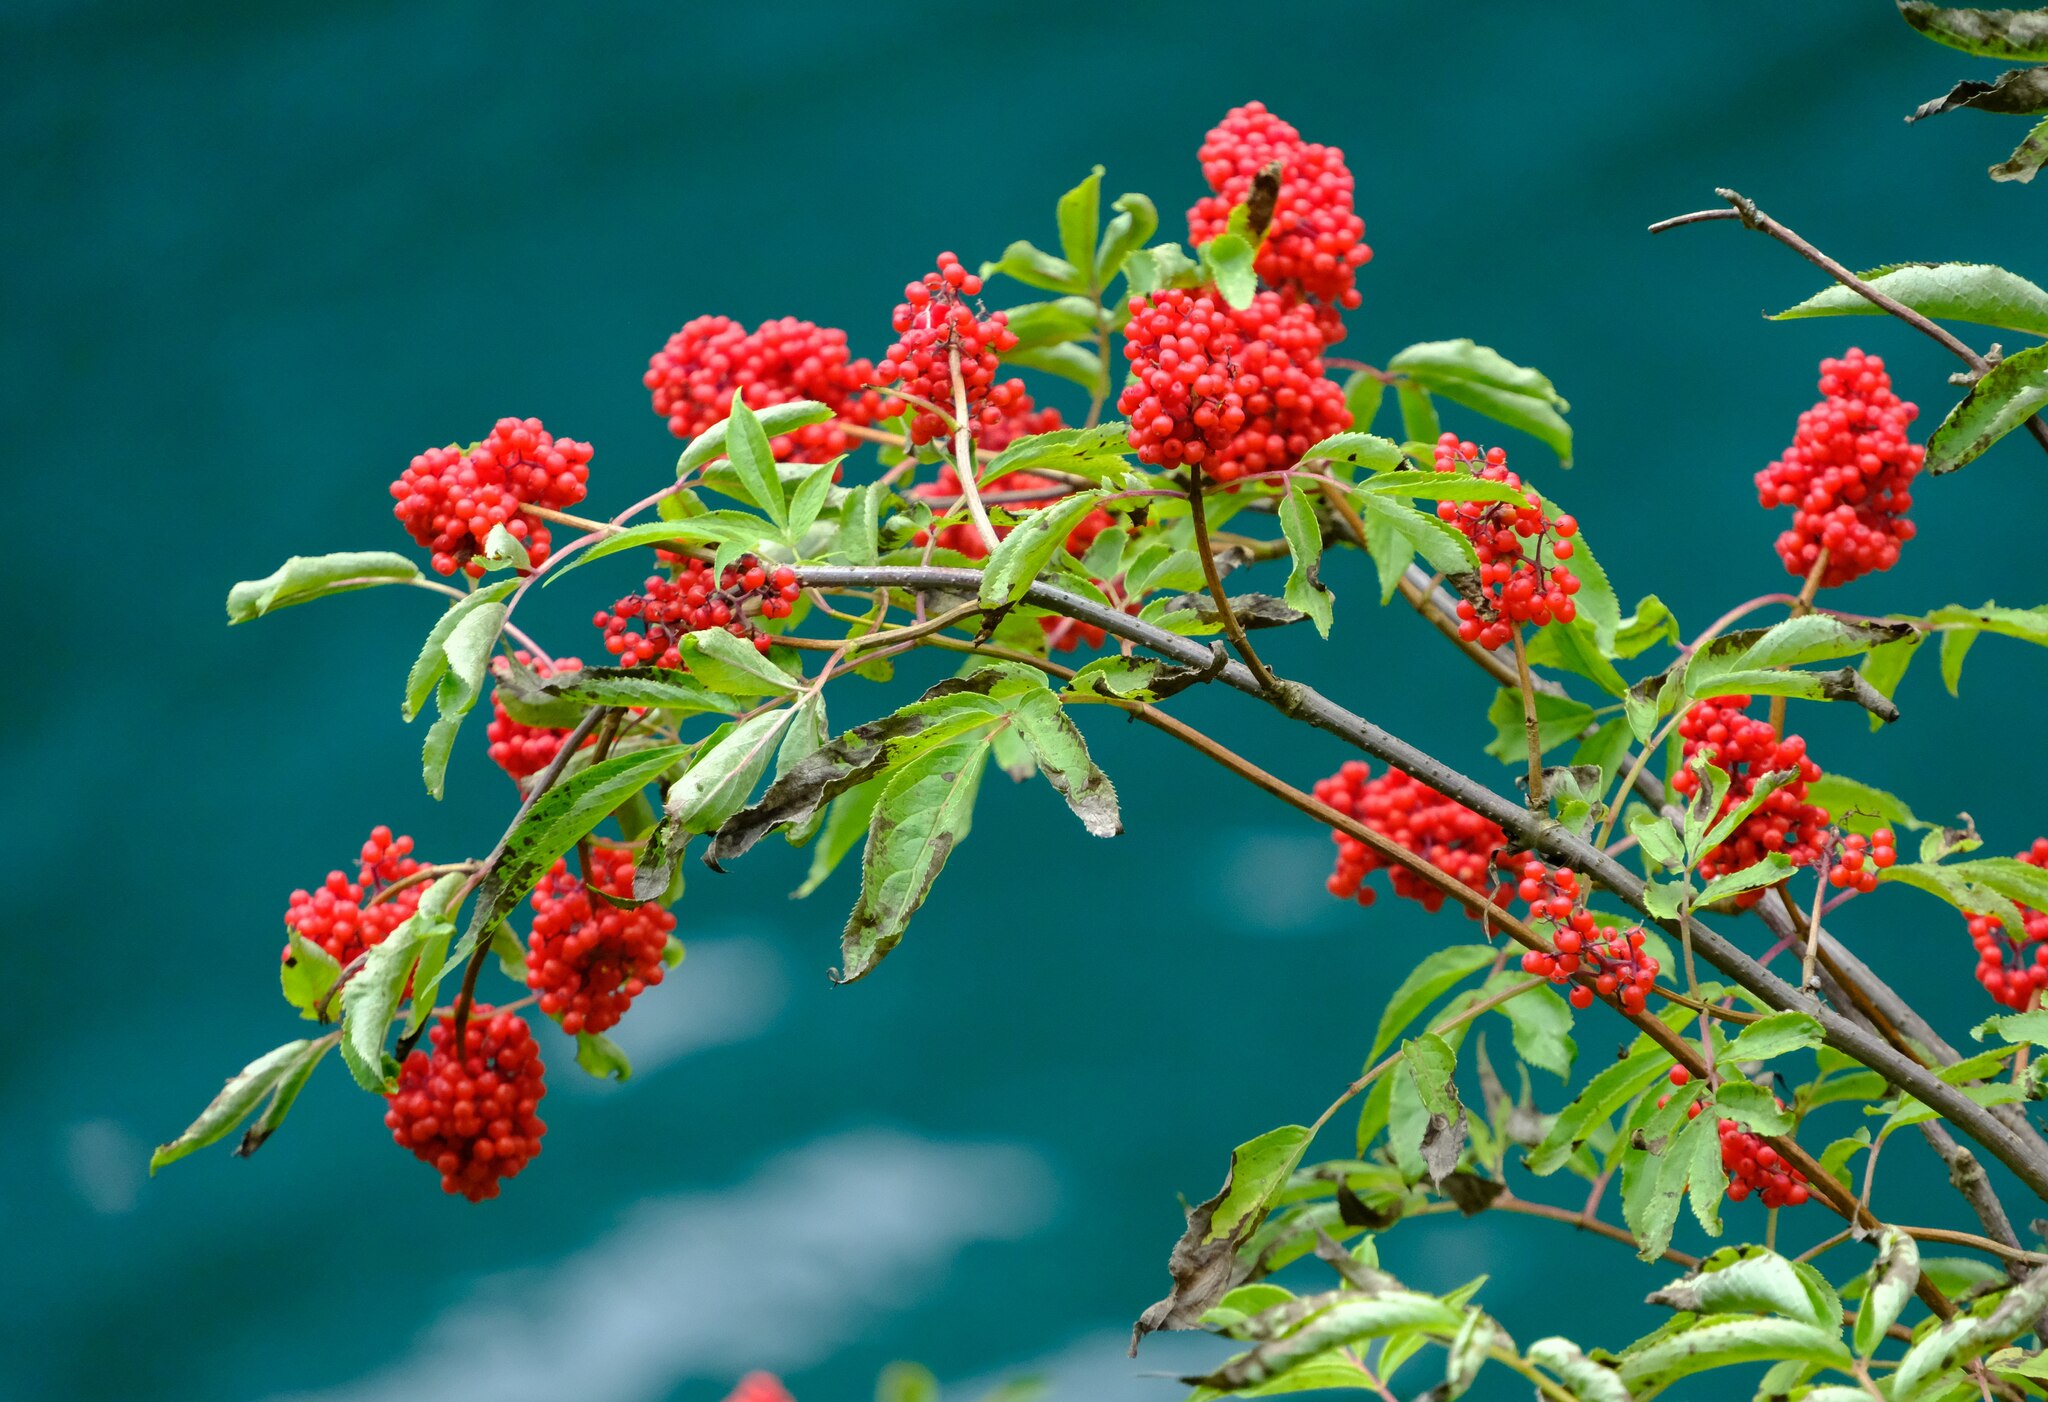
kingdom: Plantae
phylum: Tracheophyta
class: Magnoliopsida
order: Dipsacales
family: Viburnaceae
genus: Sambucus
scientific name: Sambucus racemosa
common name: Red-berried elder
